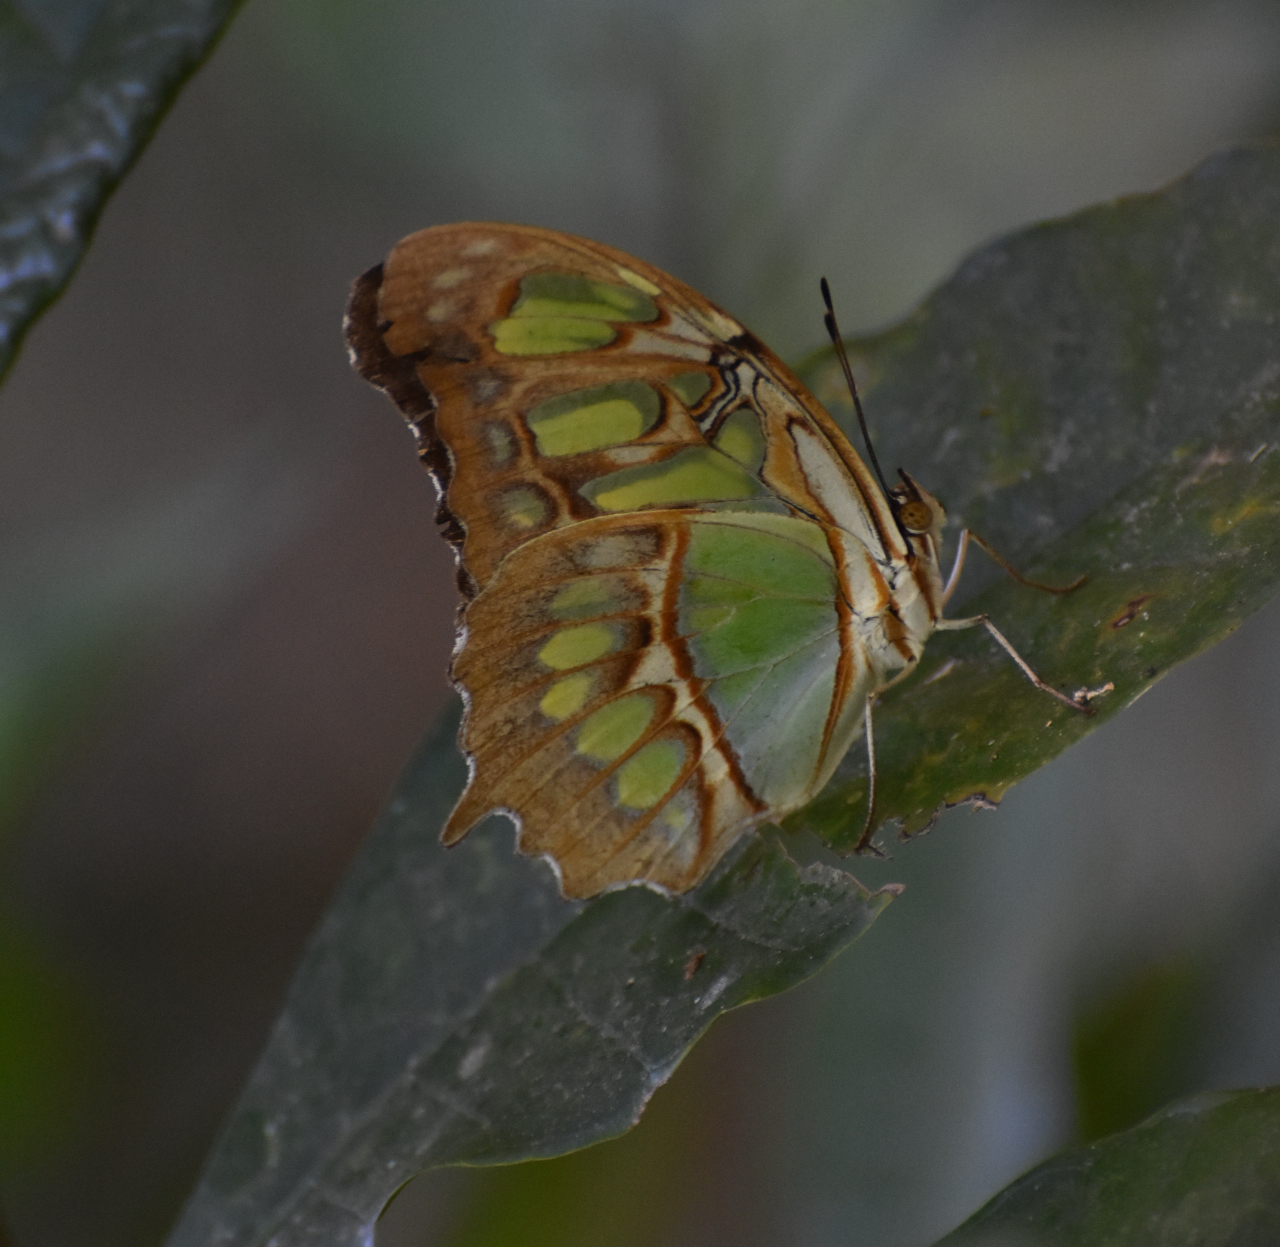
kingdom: Animalia
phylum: Arthropoda
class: Insecta
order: Lepidoptera
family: Nymphalidae
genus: Siproeta
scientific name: Siproeta stelenes
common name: Malachite
